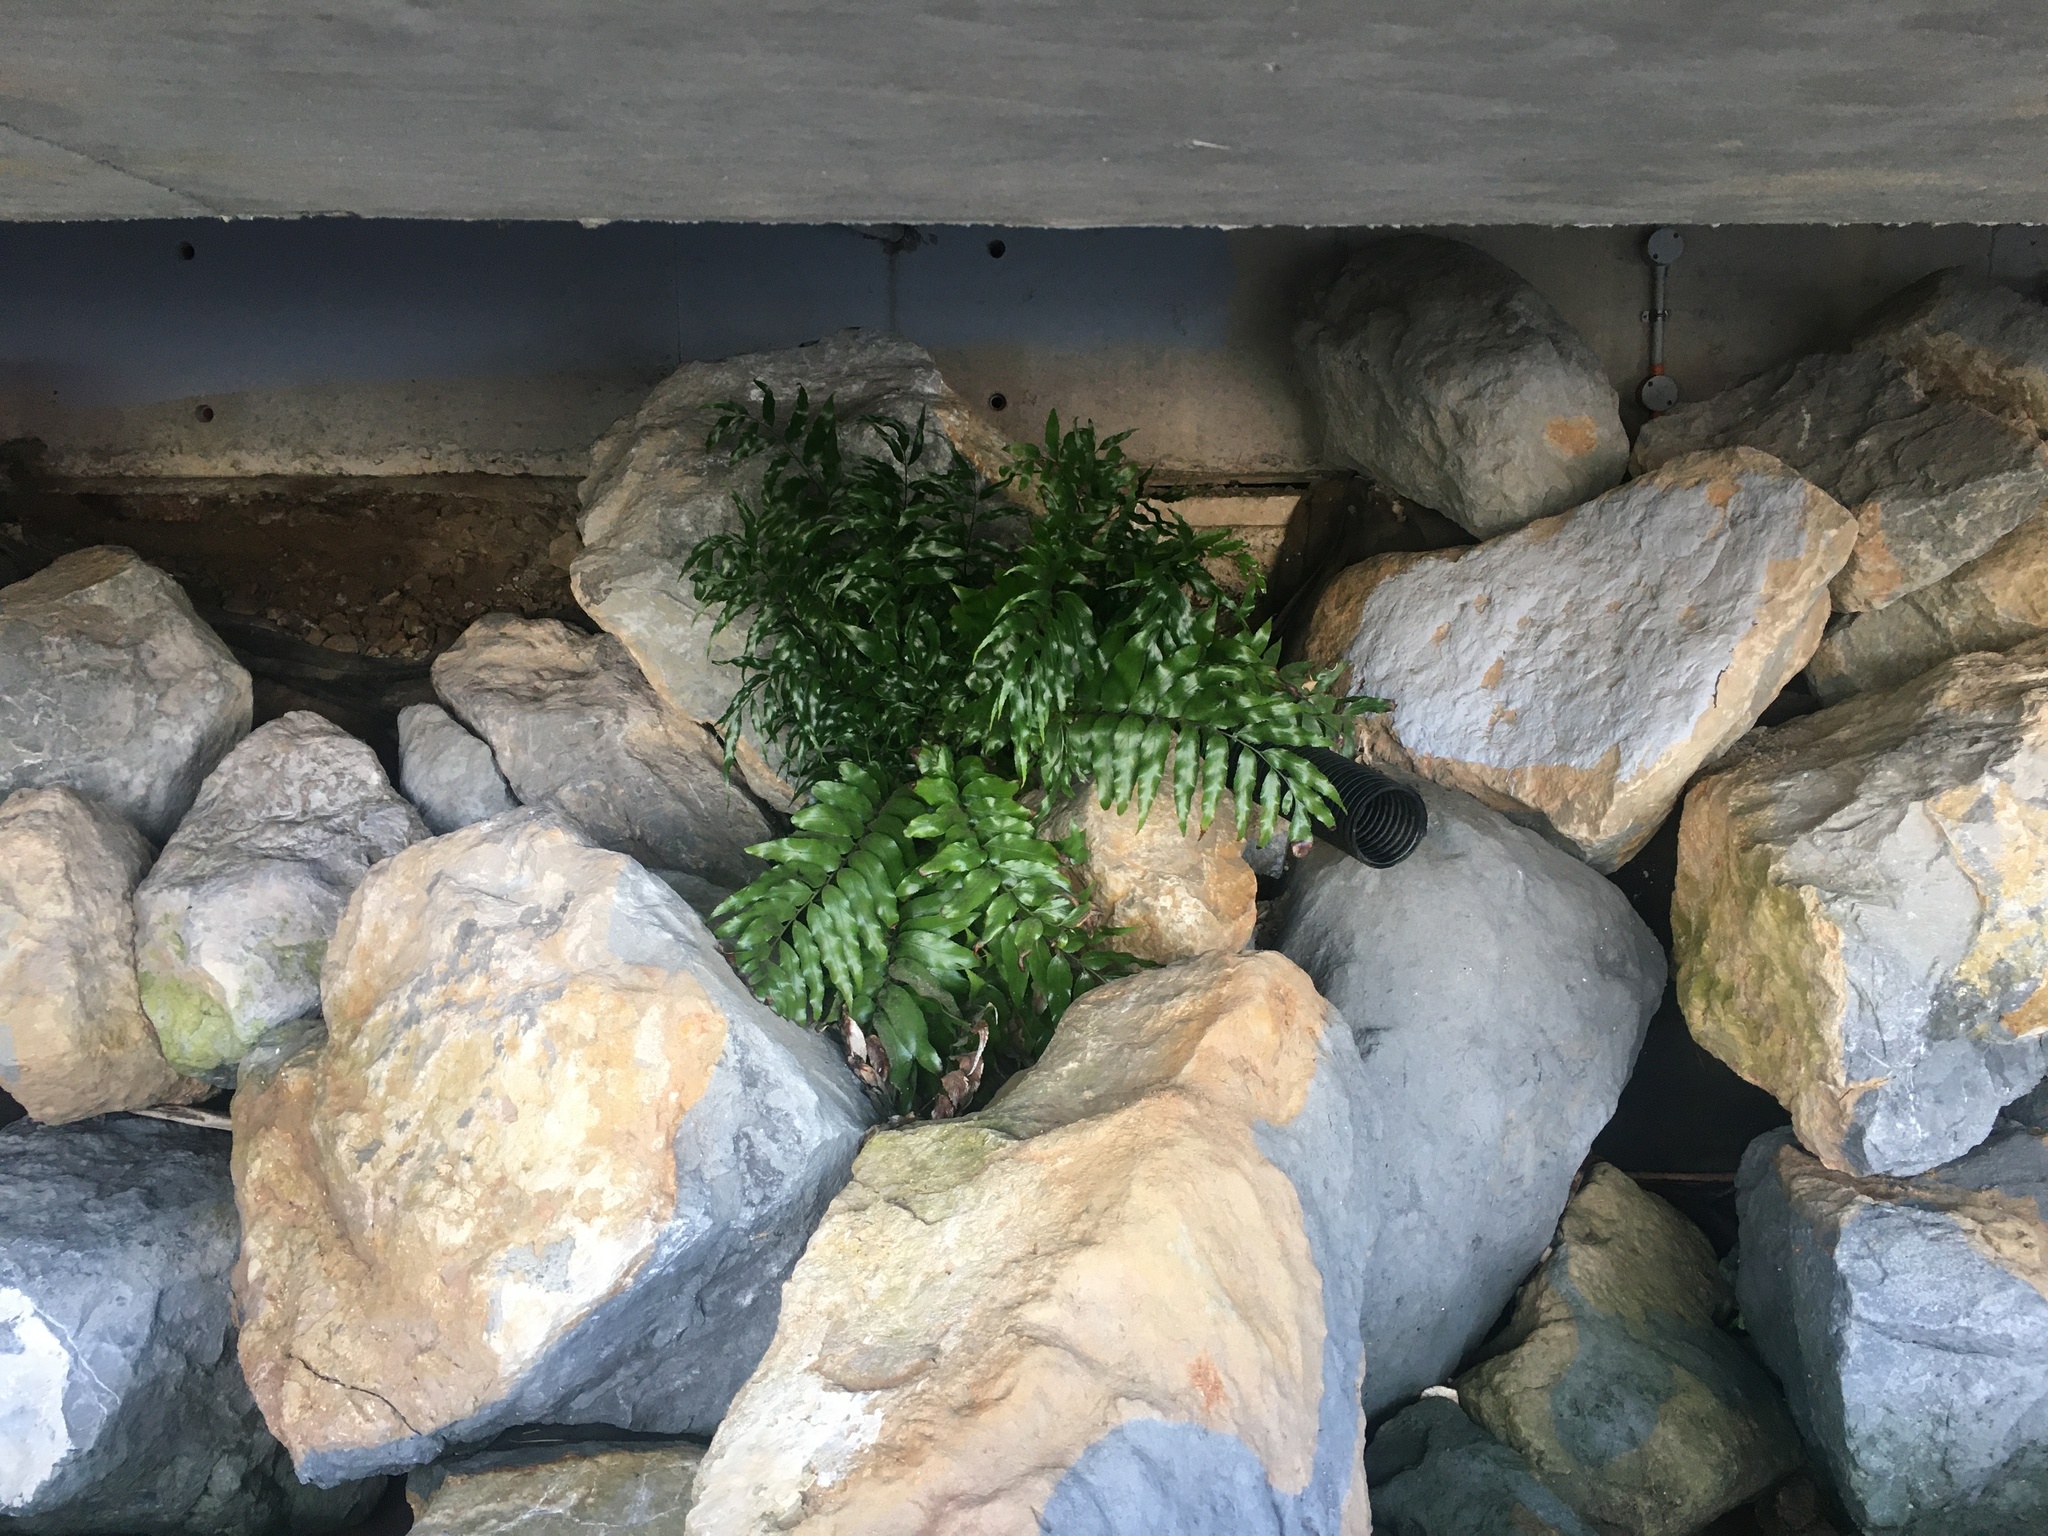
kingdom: Plantae
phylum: Tracheophyta
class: Polypodiopsida
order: Polypodiales
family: Aspleniaceae
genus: Asplenium
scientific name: Asplenium oblongifolium
